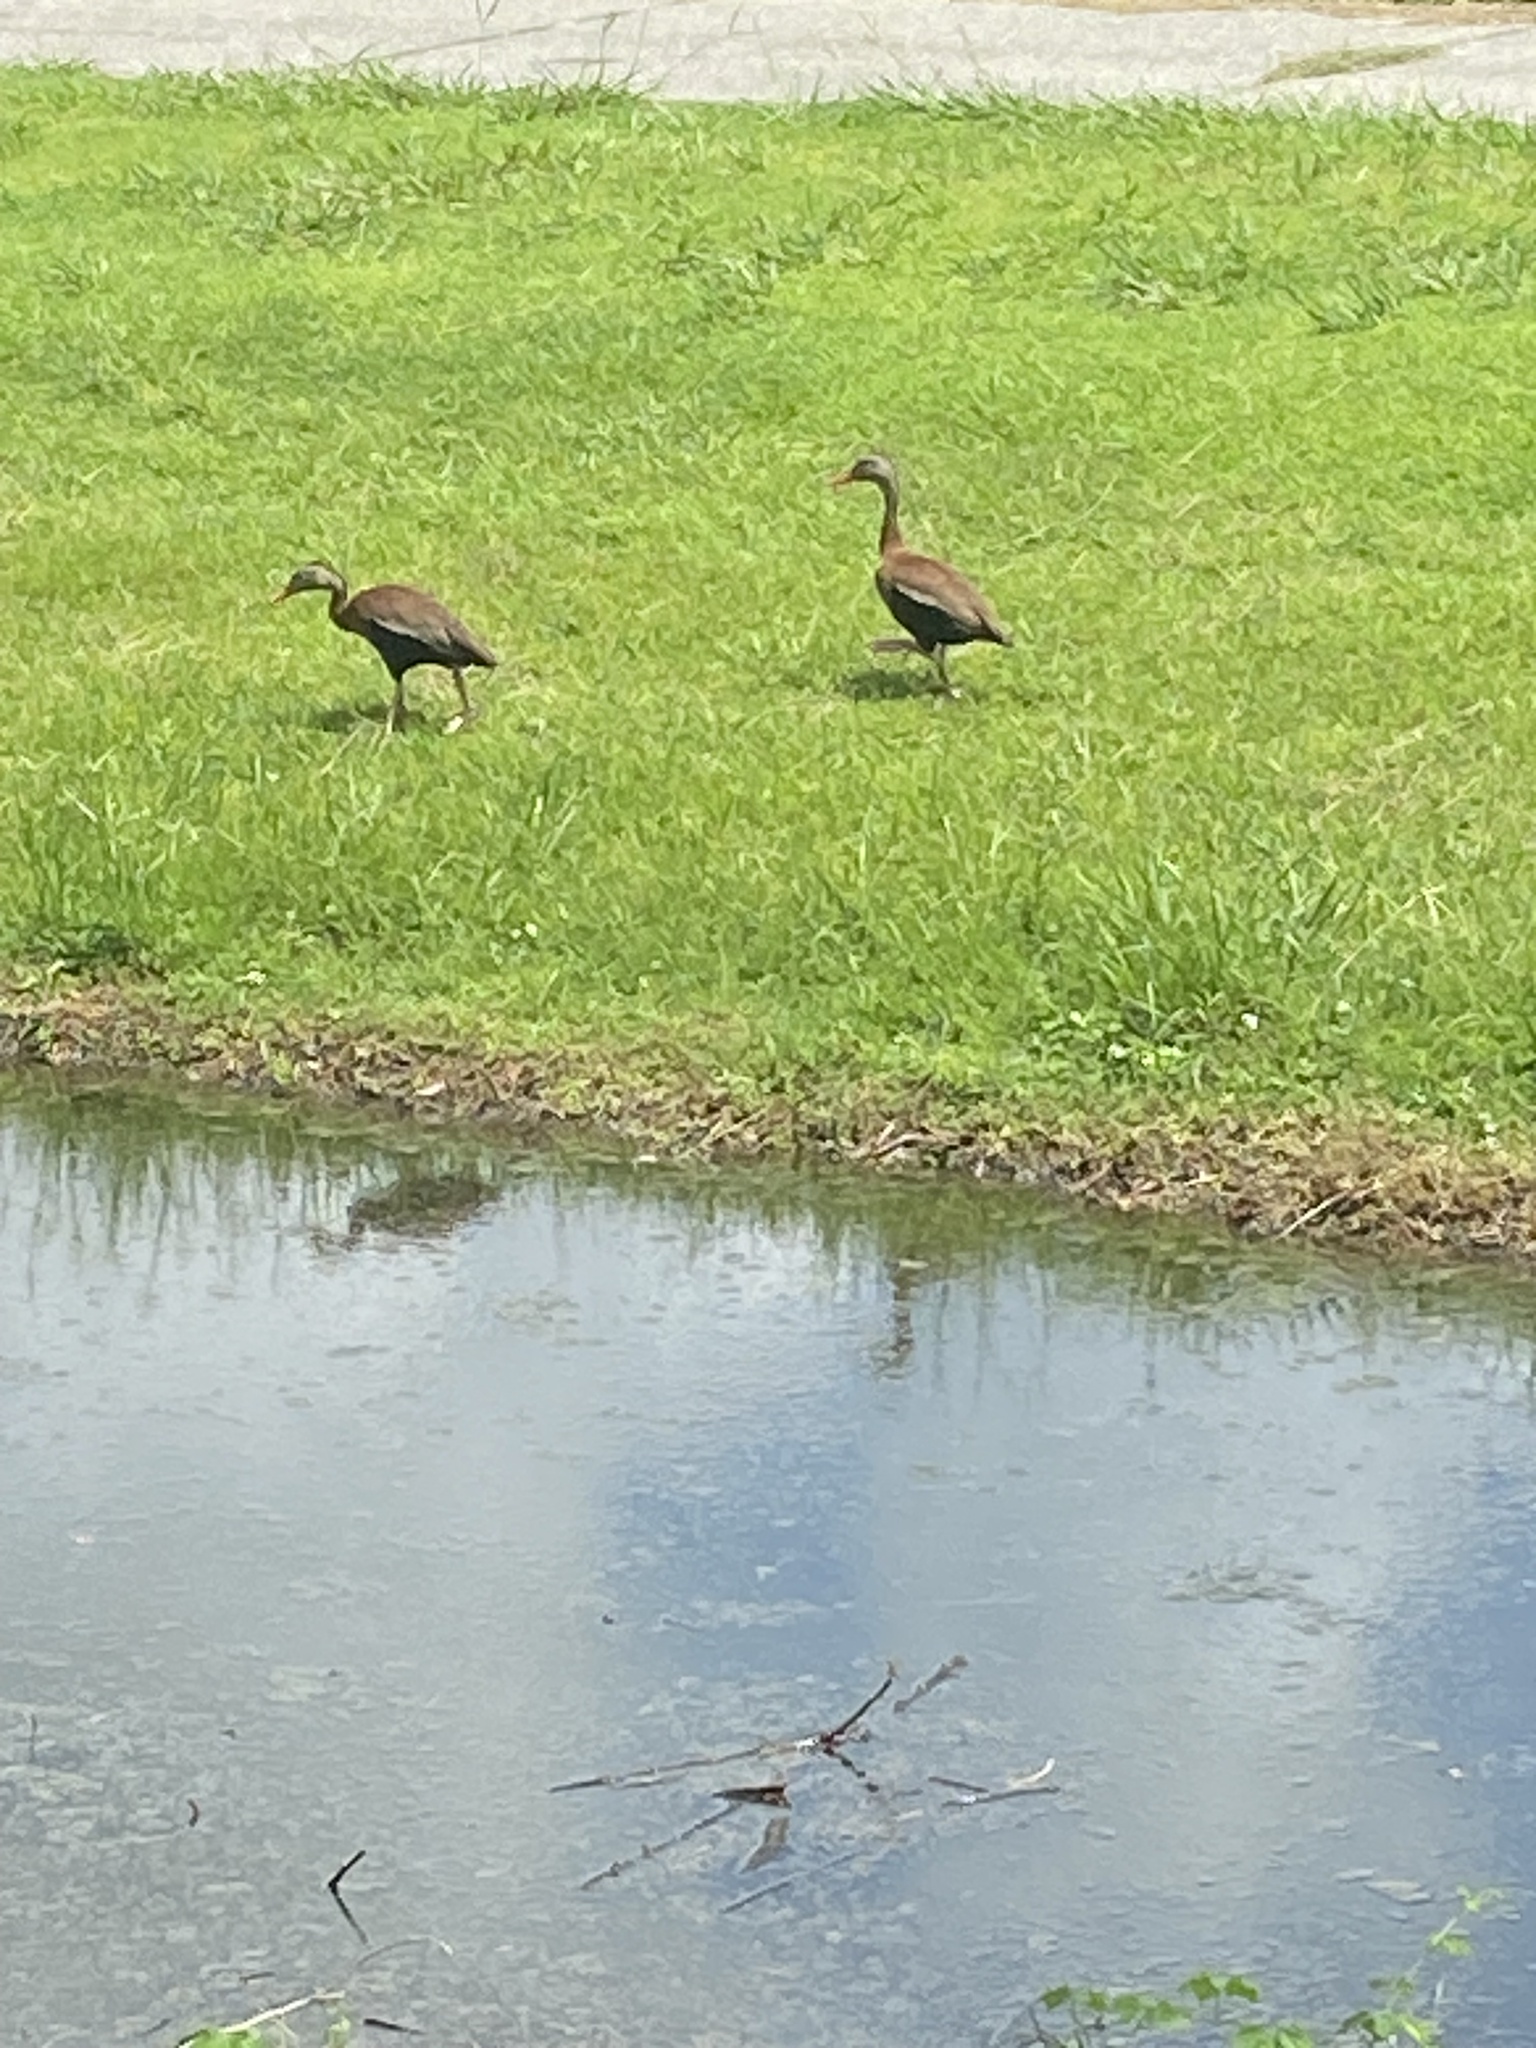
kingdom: Animalia
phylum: Chordata
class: Aves
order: Anseriformes
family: Anatidae
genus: Dendrocygna
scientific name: Dendrocygna autumnalis
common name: Black-bellied whistling duck
